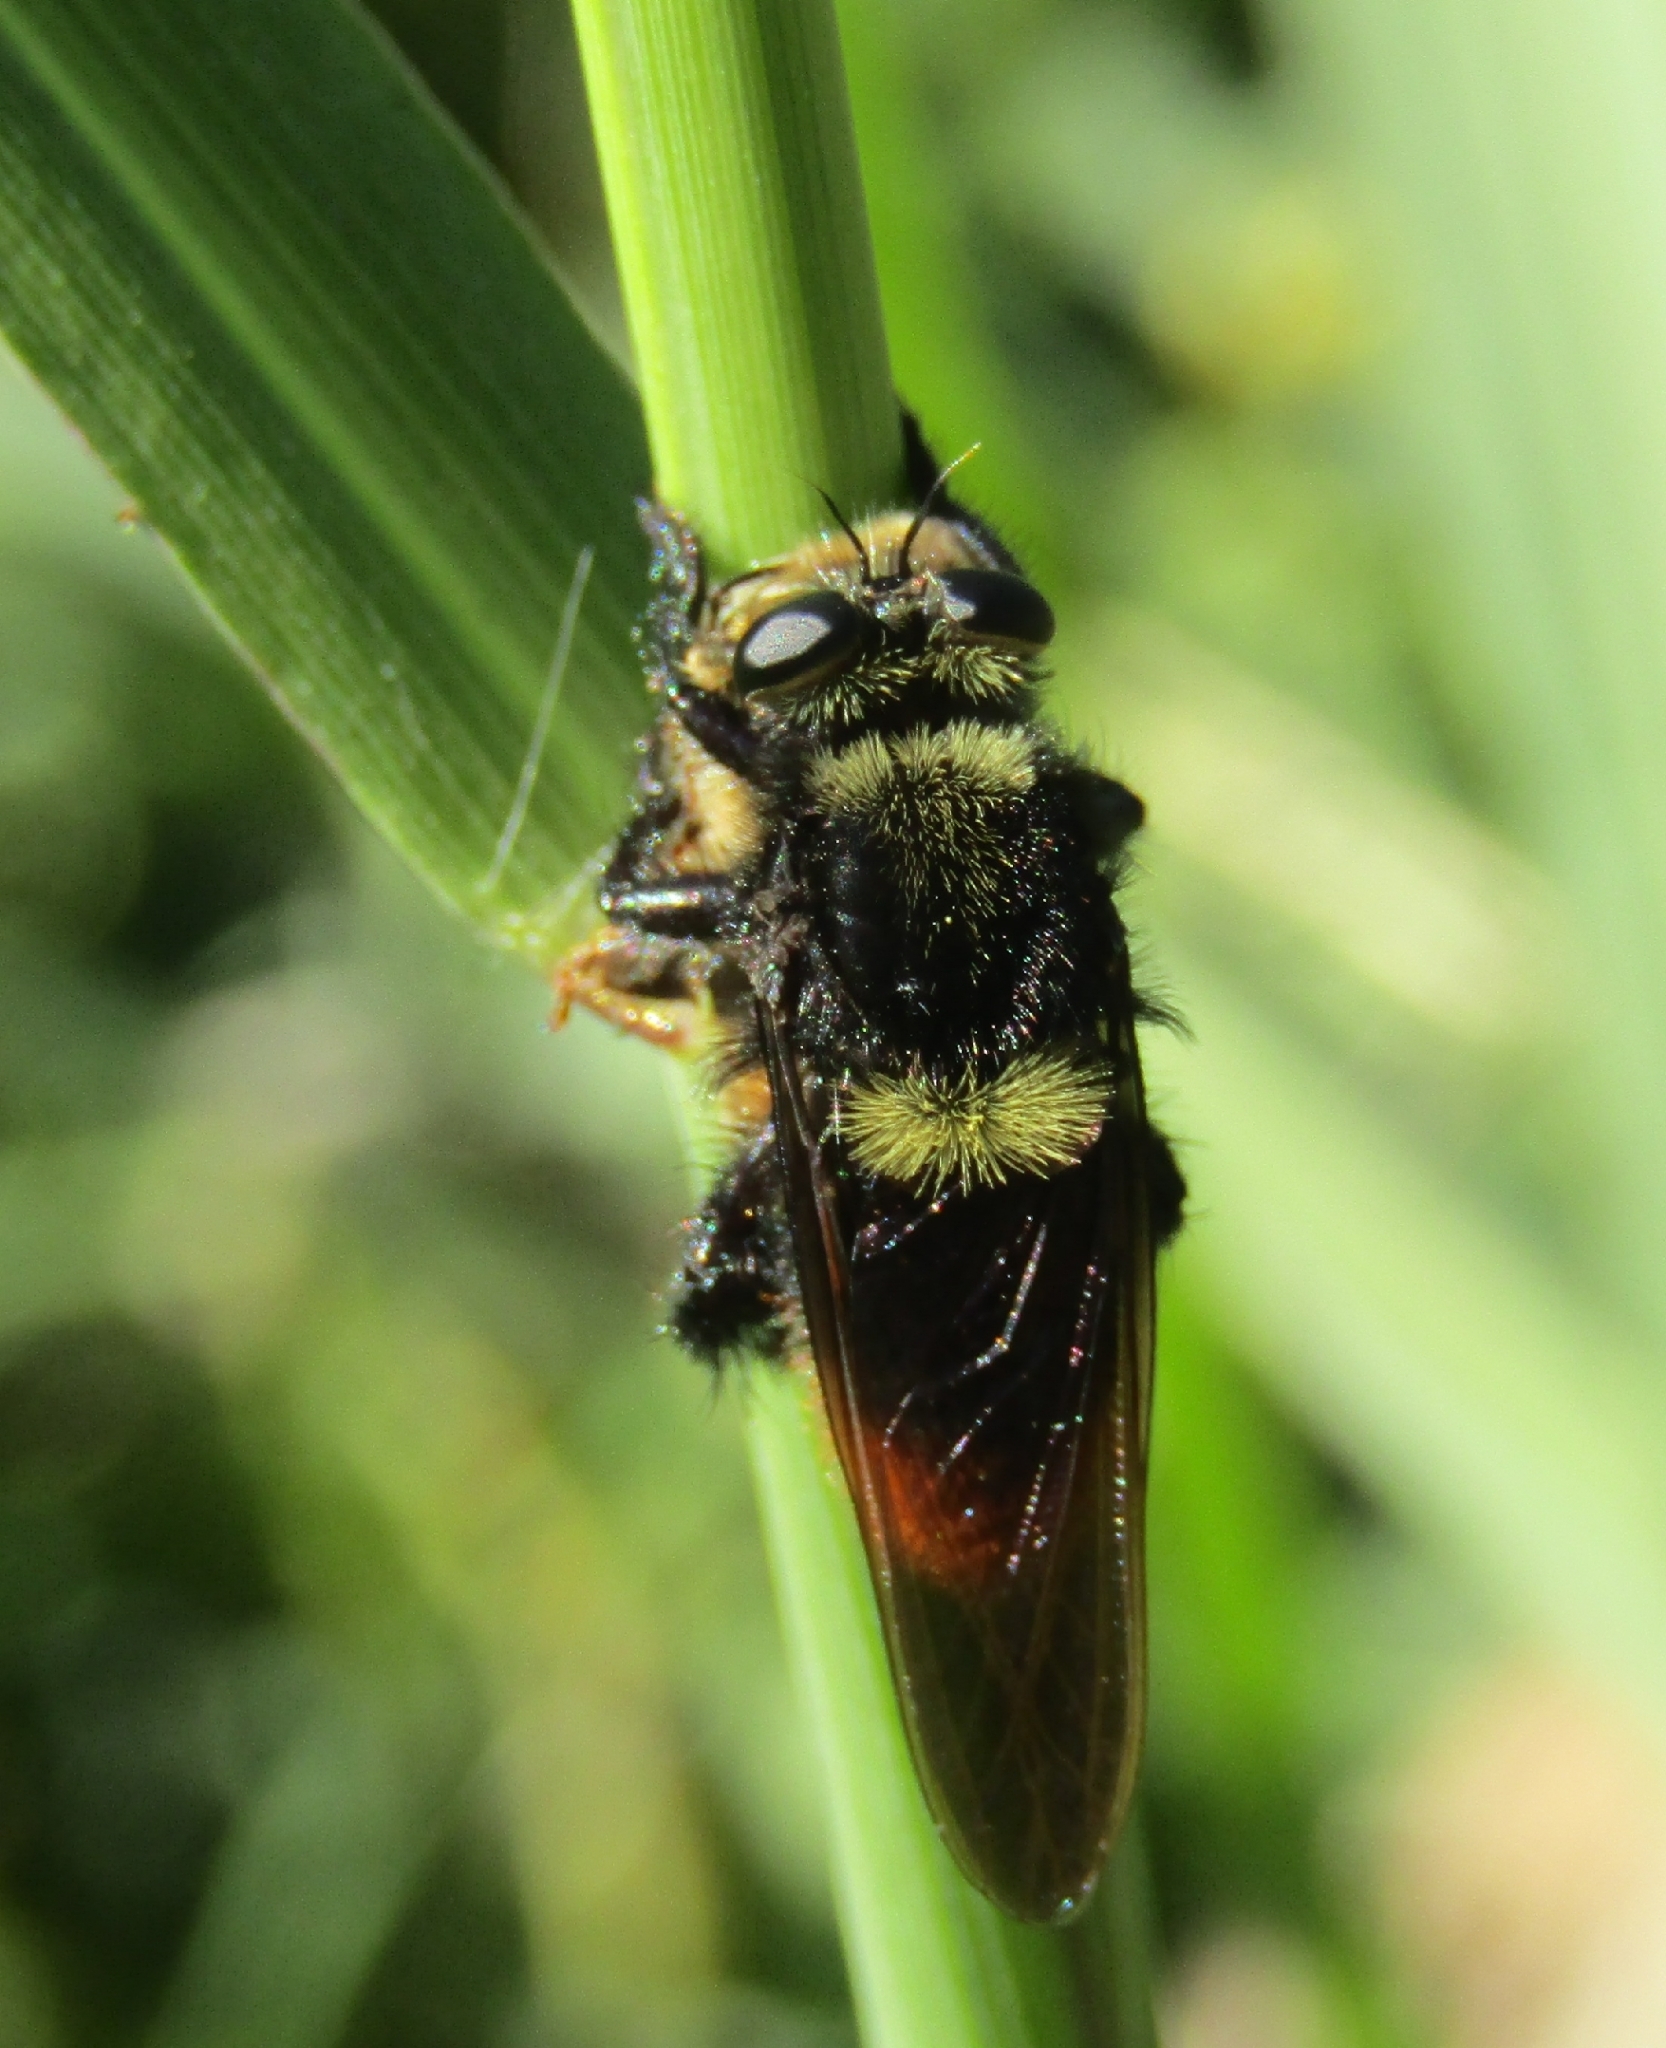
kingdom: Animalia
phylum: Arthropoda
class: Insecta
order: Diptera
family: Asilidae
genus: Mallophora
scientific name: Mallophora ruficauda
